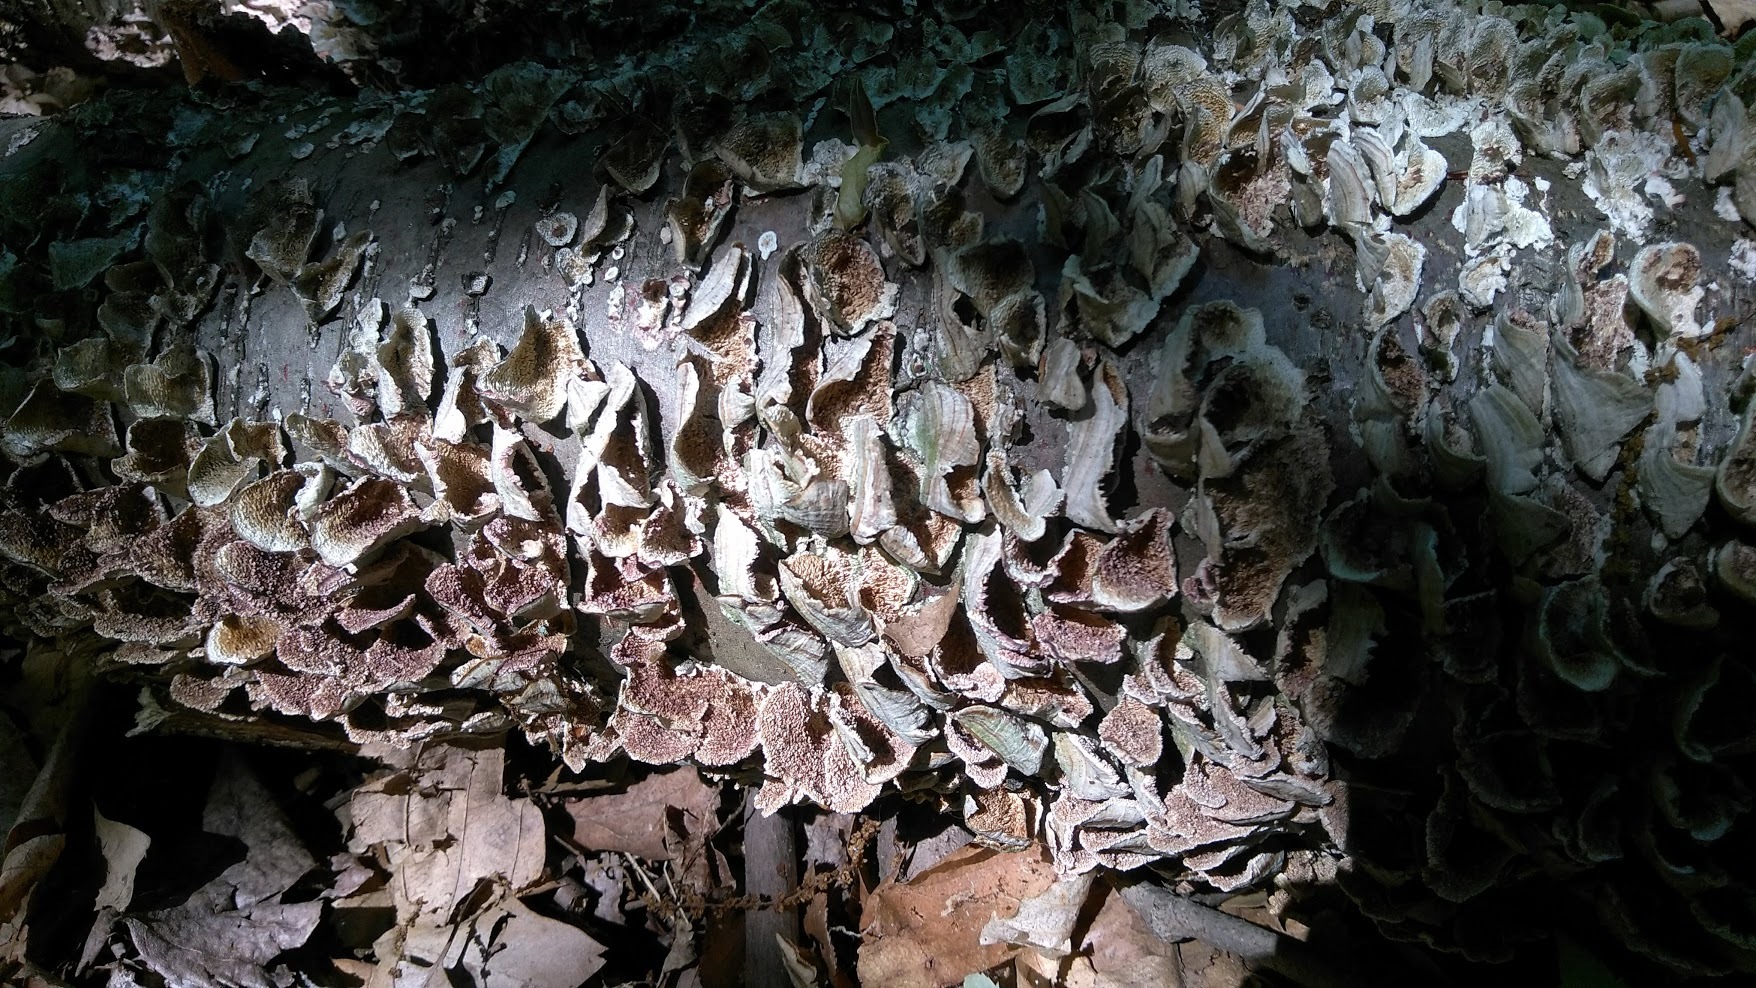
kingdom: Fungi
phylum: Basidiomycota
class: Agaricomycetes
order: Hymenochaetales
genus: Trichaptum
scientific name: Trichaptum biforme
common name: Violet-toothed polypore
